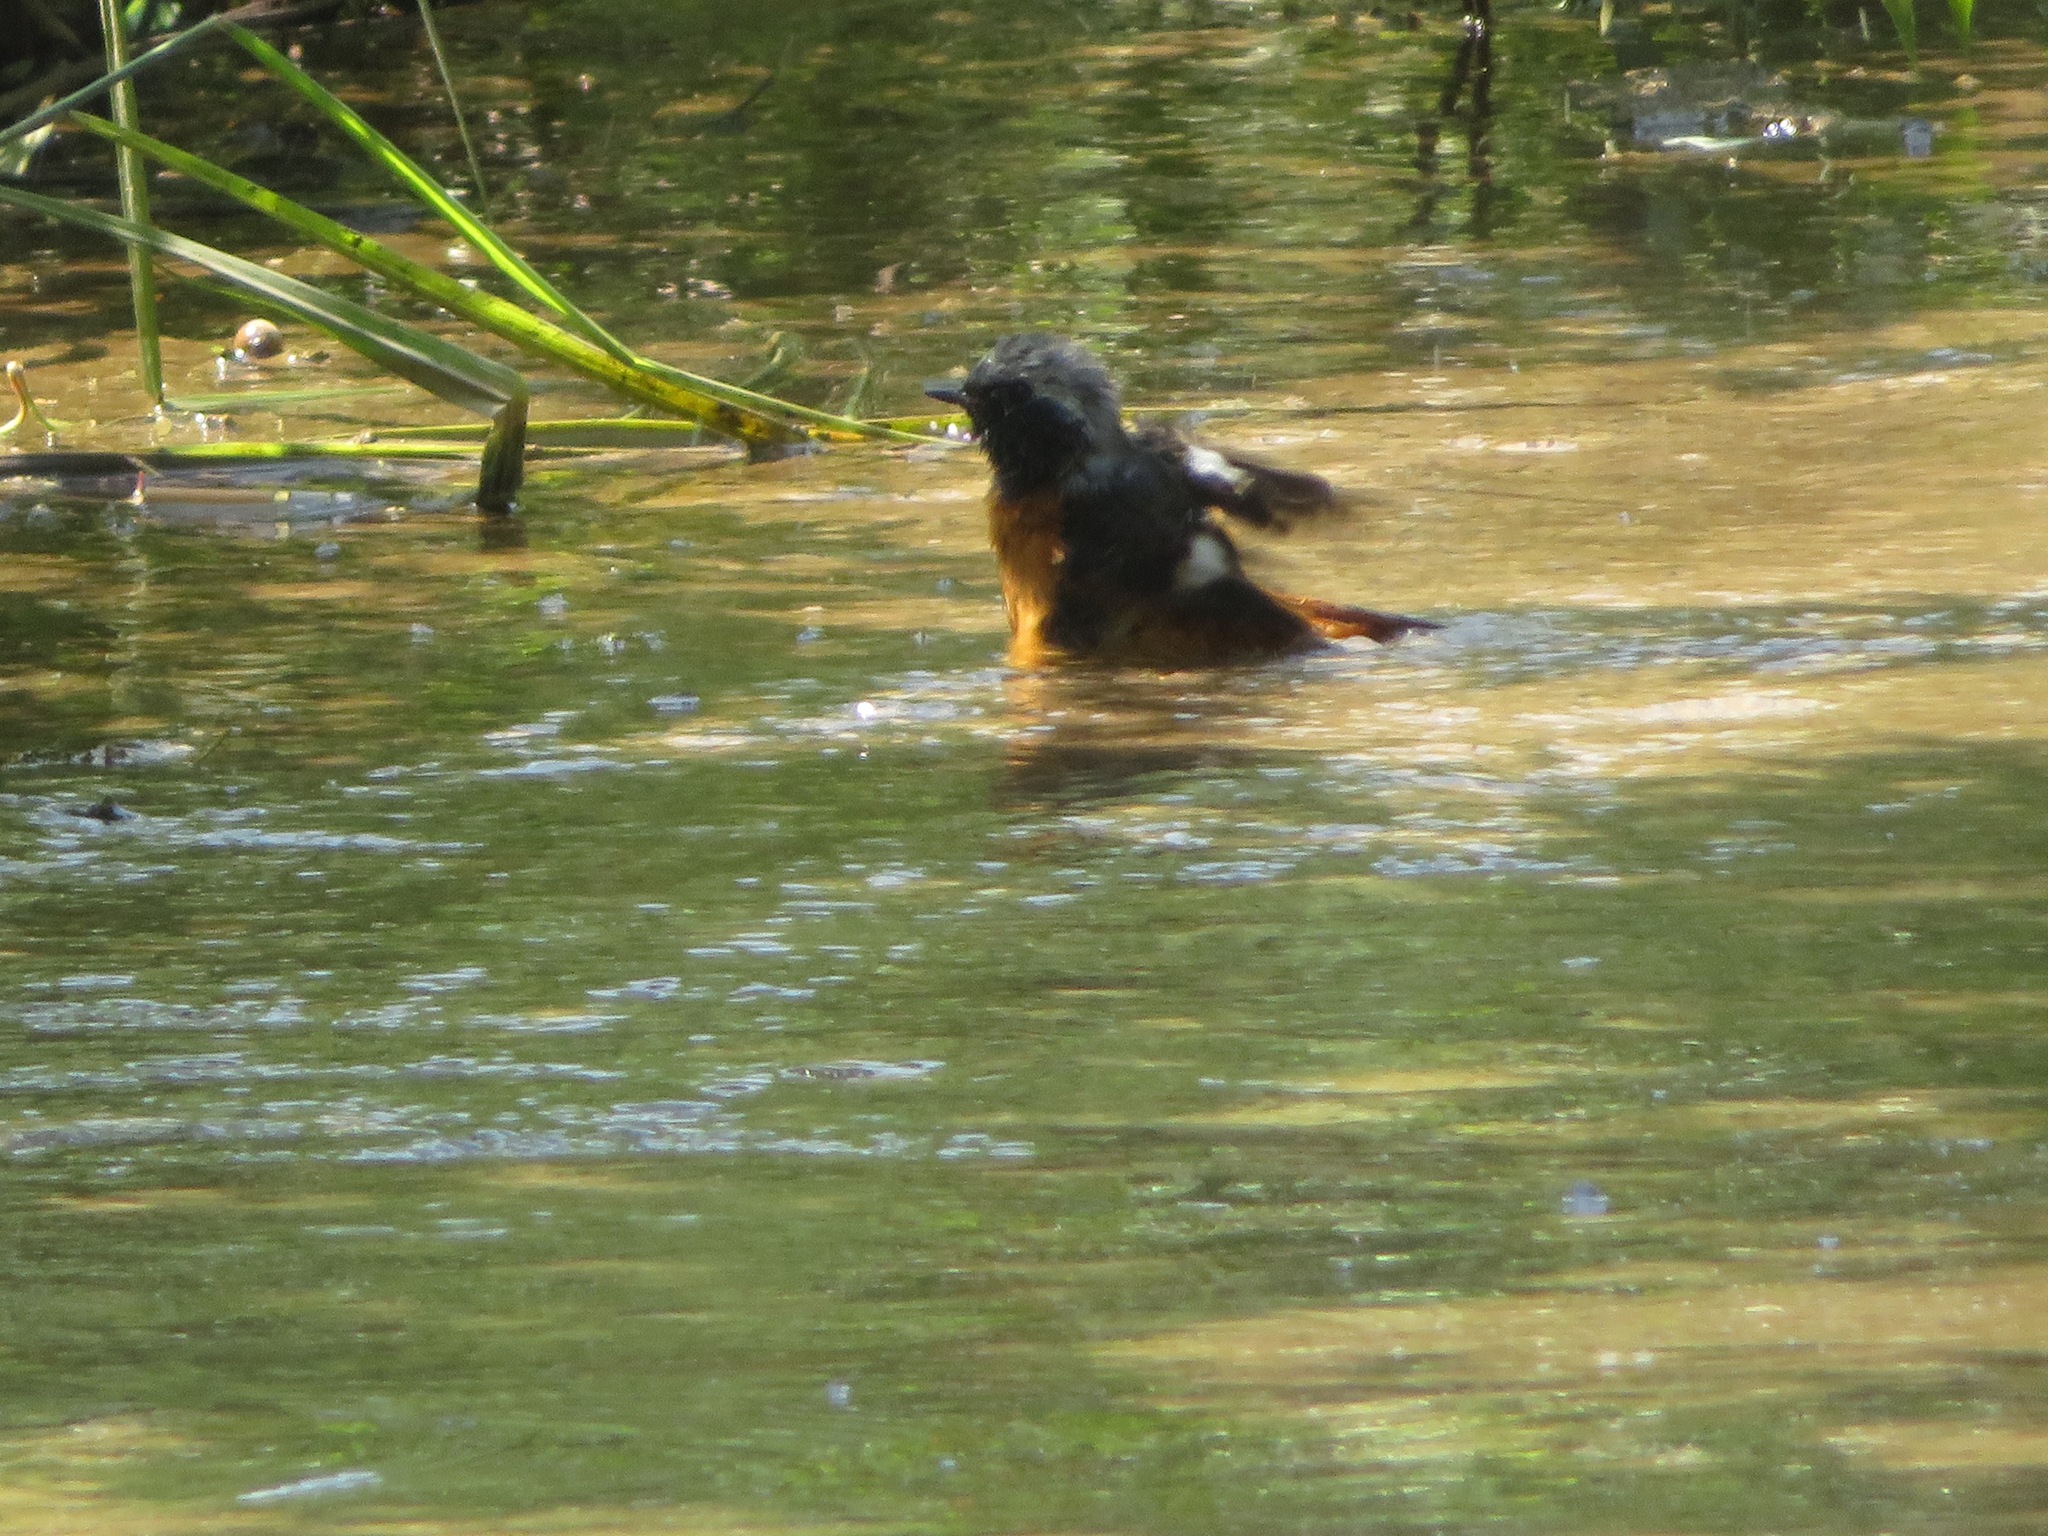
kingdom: Animalia
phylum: Chordata
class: Aves
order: Passeriformes
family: Muscicapidae
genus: Phoenicurus
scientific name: Phoenicurus auroreus
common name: Daurian redstart
